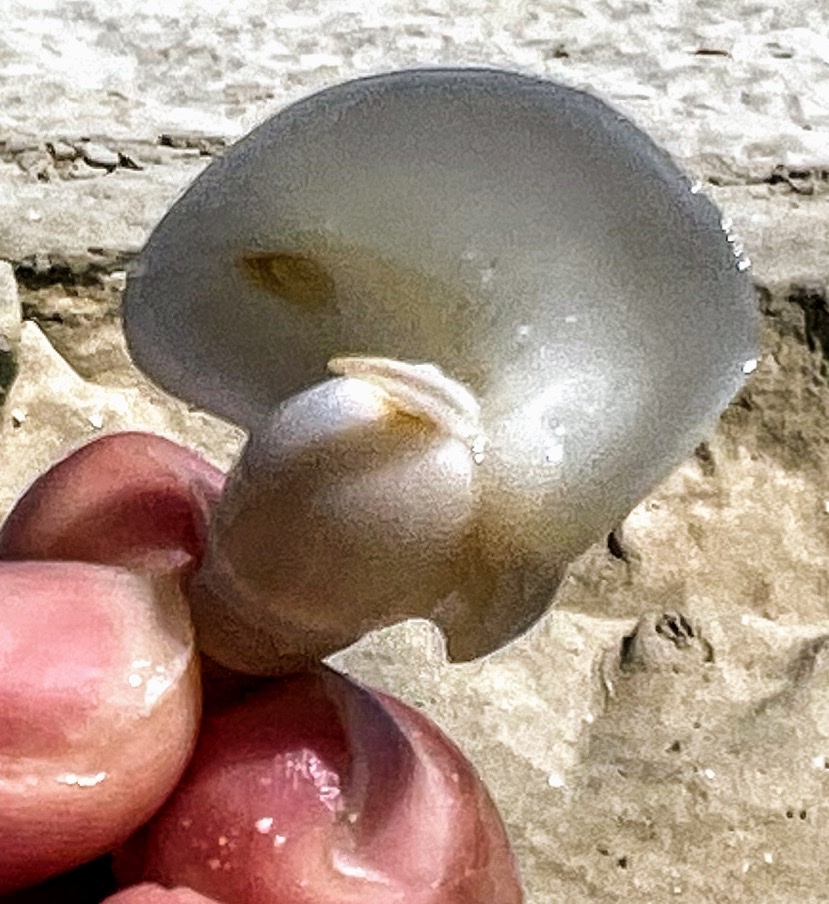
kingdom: Animalia
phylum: Mollusca
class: Gastropoda
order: Neogastropoda
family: Nassariidae
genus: Bullia
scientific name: Bullia mauritiana
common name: Mauritian bullia
